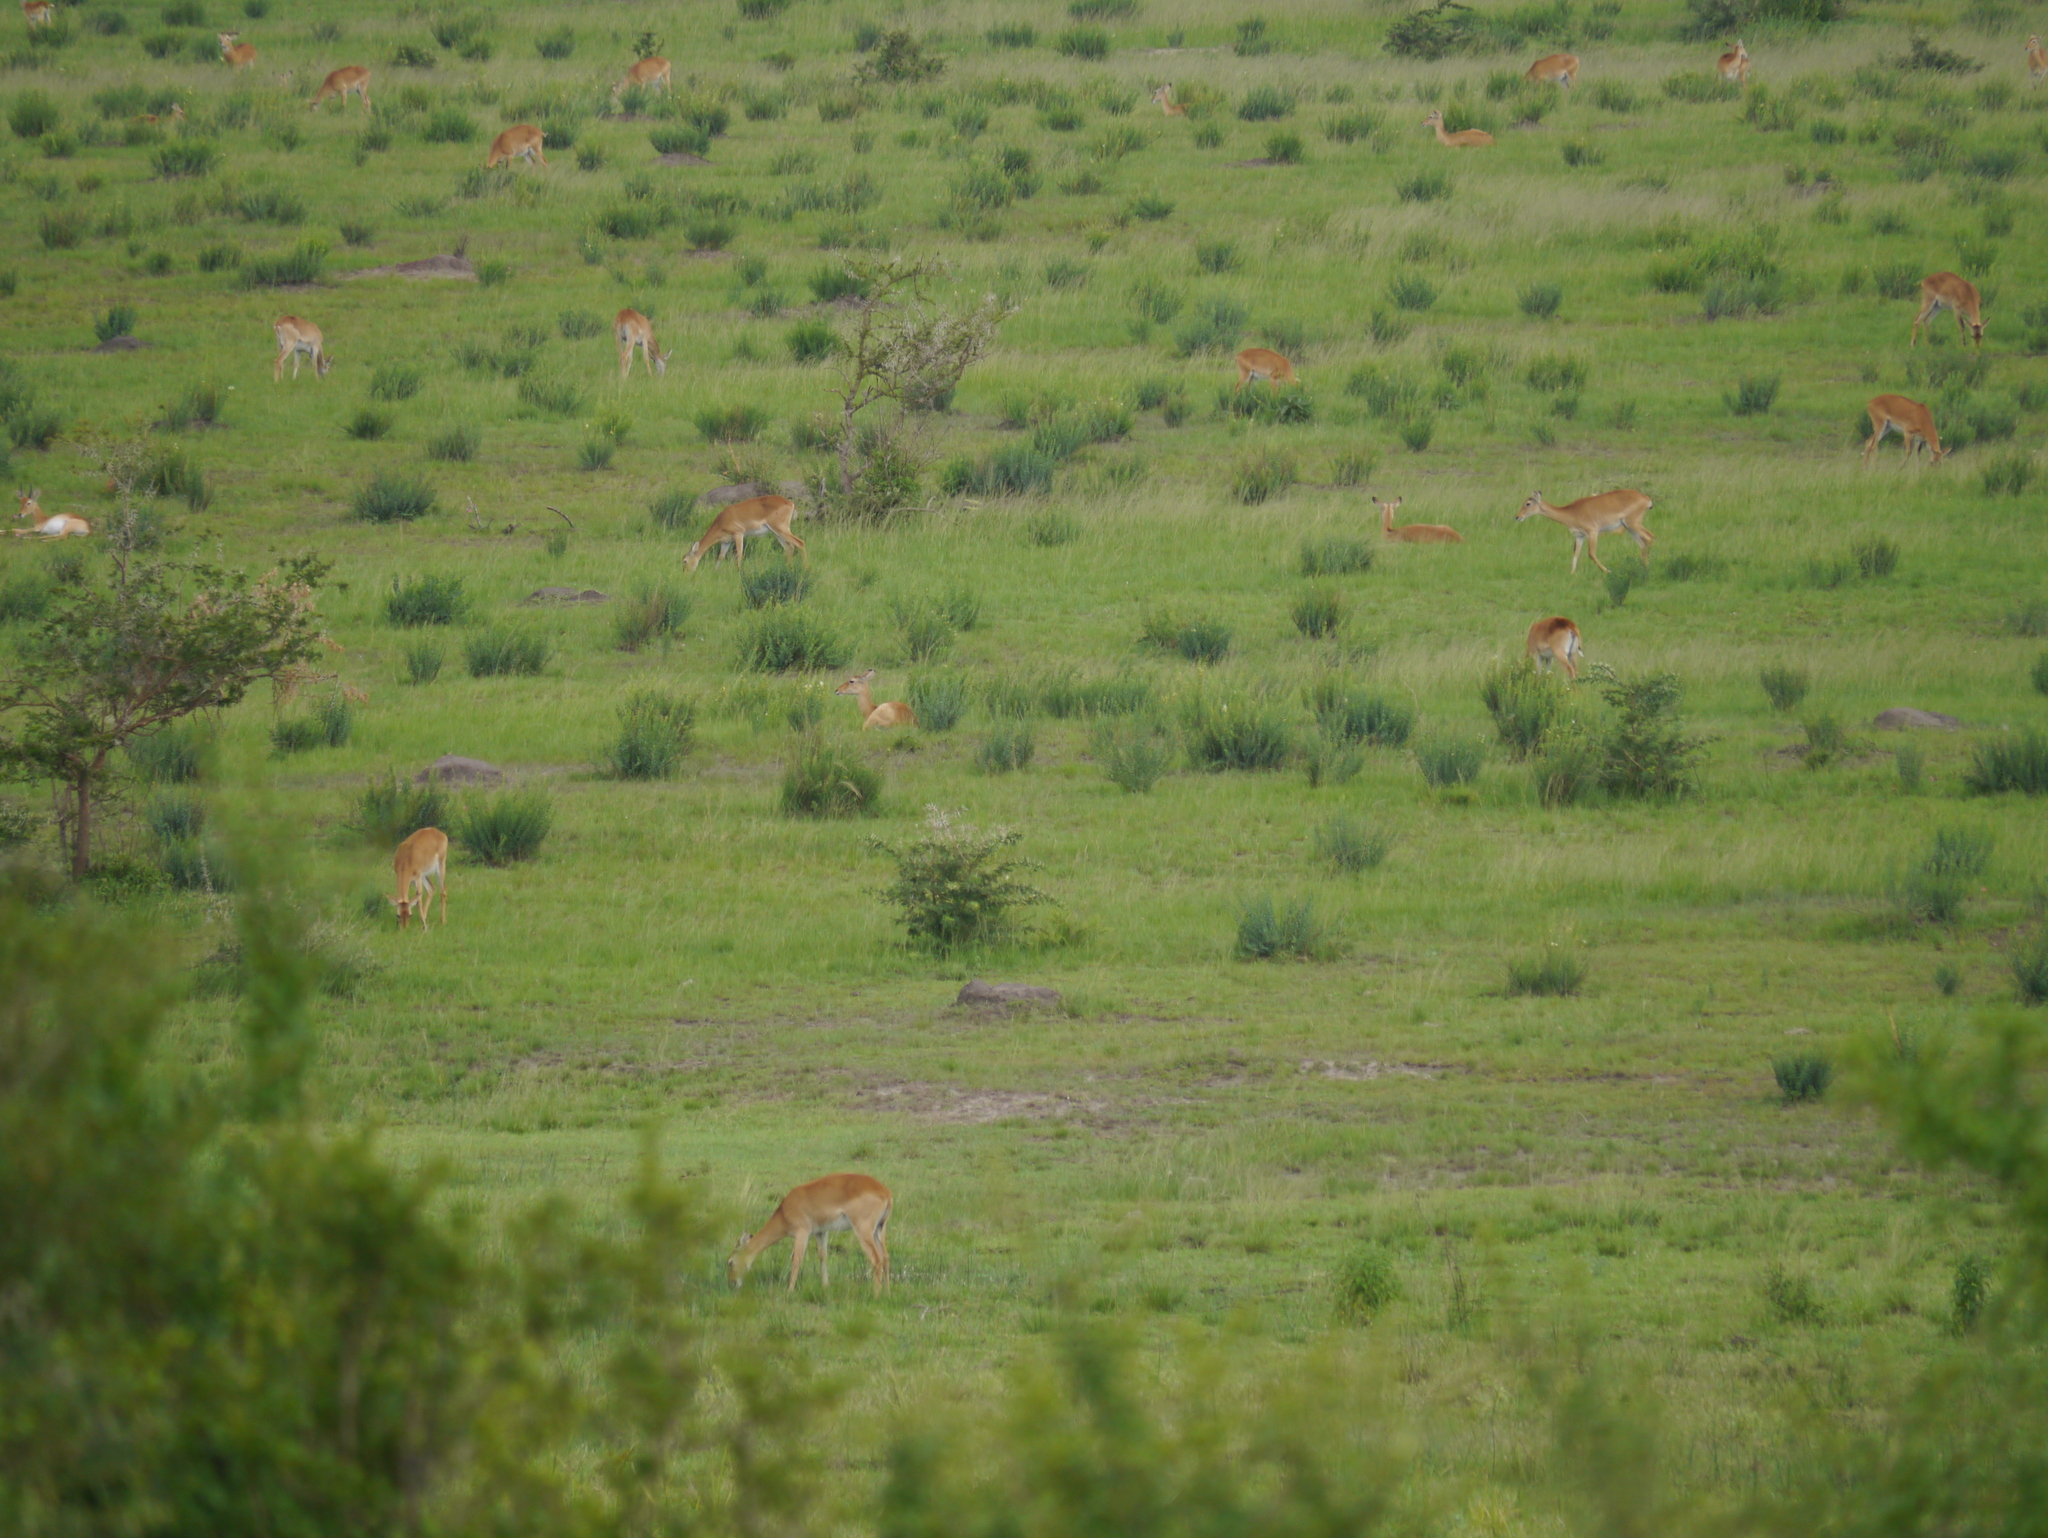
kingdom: Animalia
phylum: Chordata
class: Mammalia
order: Artiodactyla
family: Bovidae
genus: Kobus
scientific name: Kobus kob
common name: Kob
